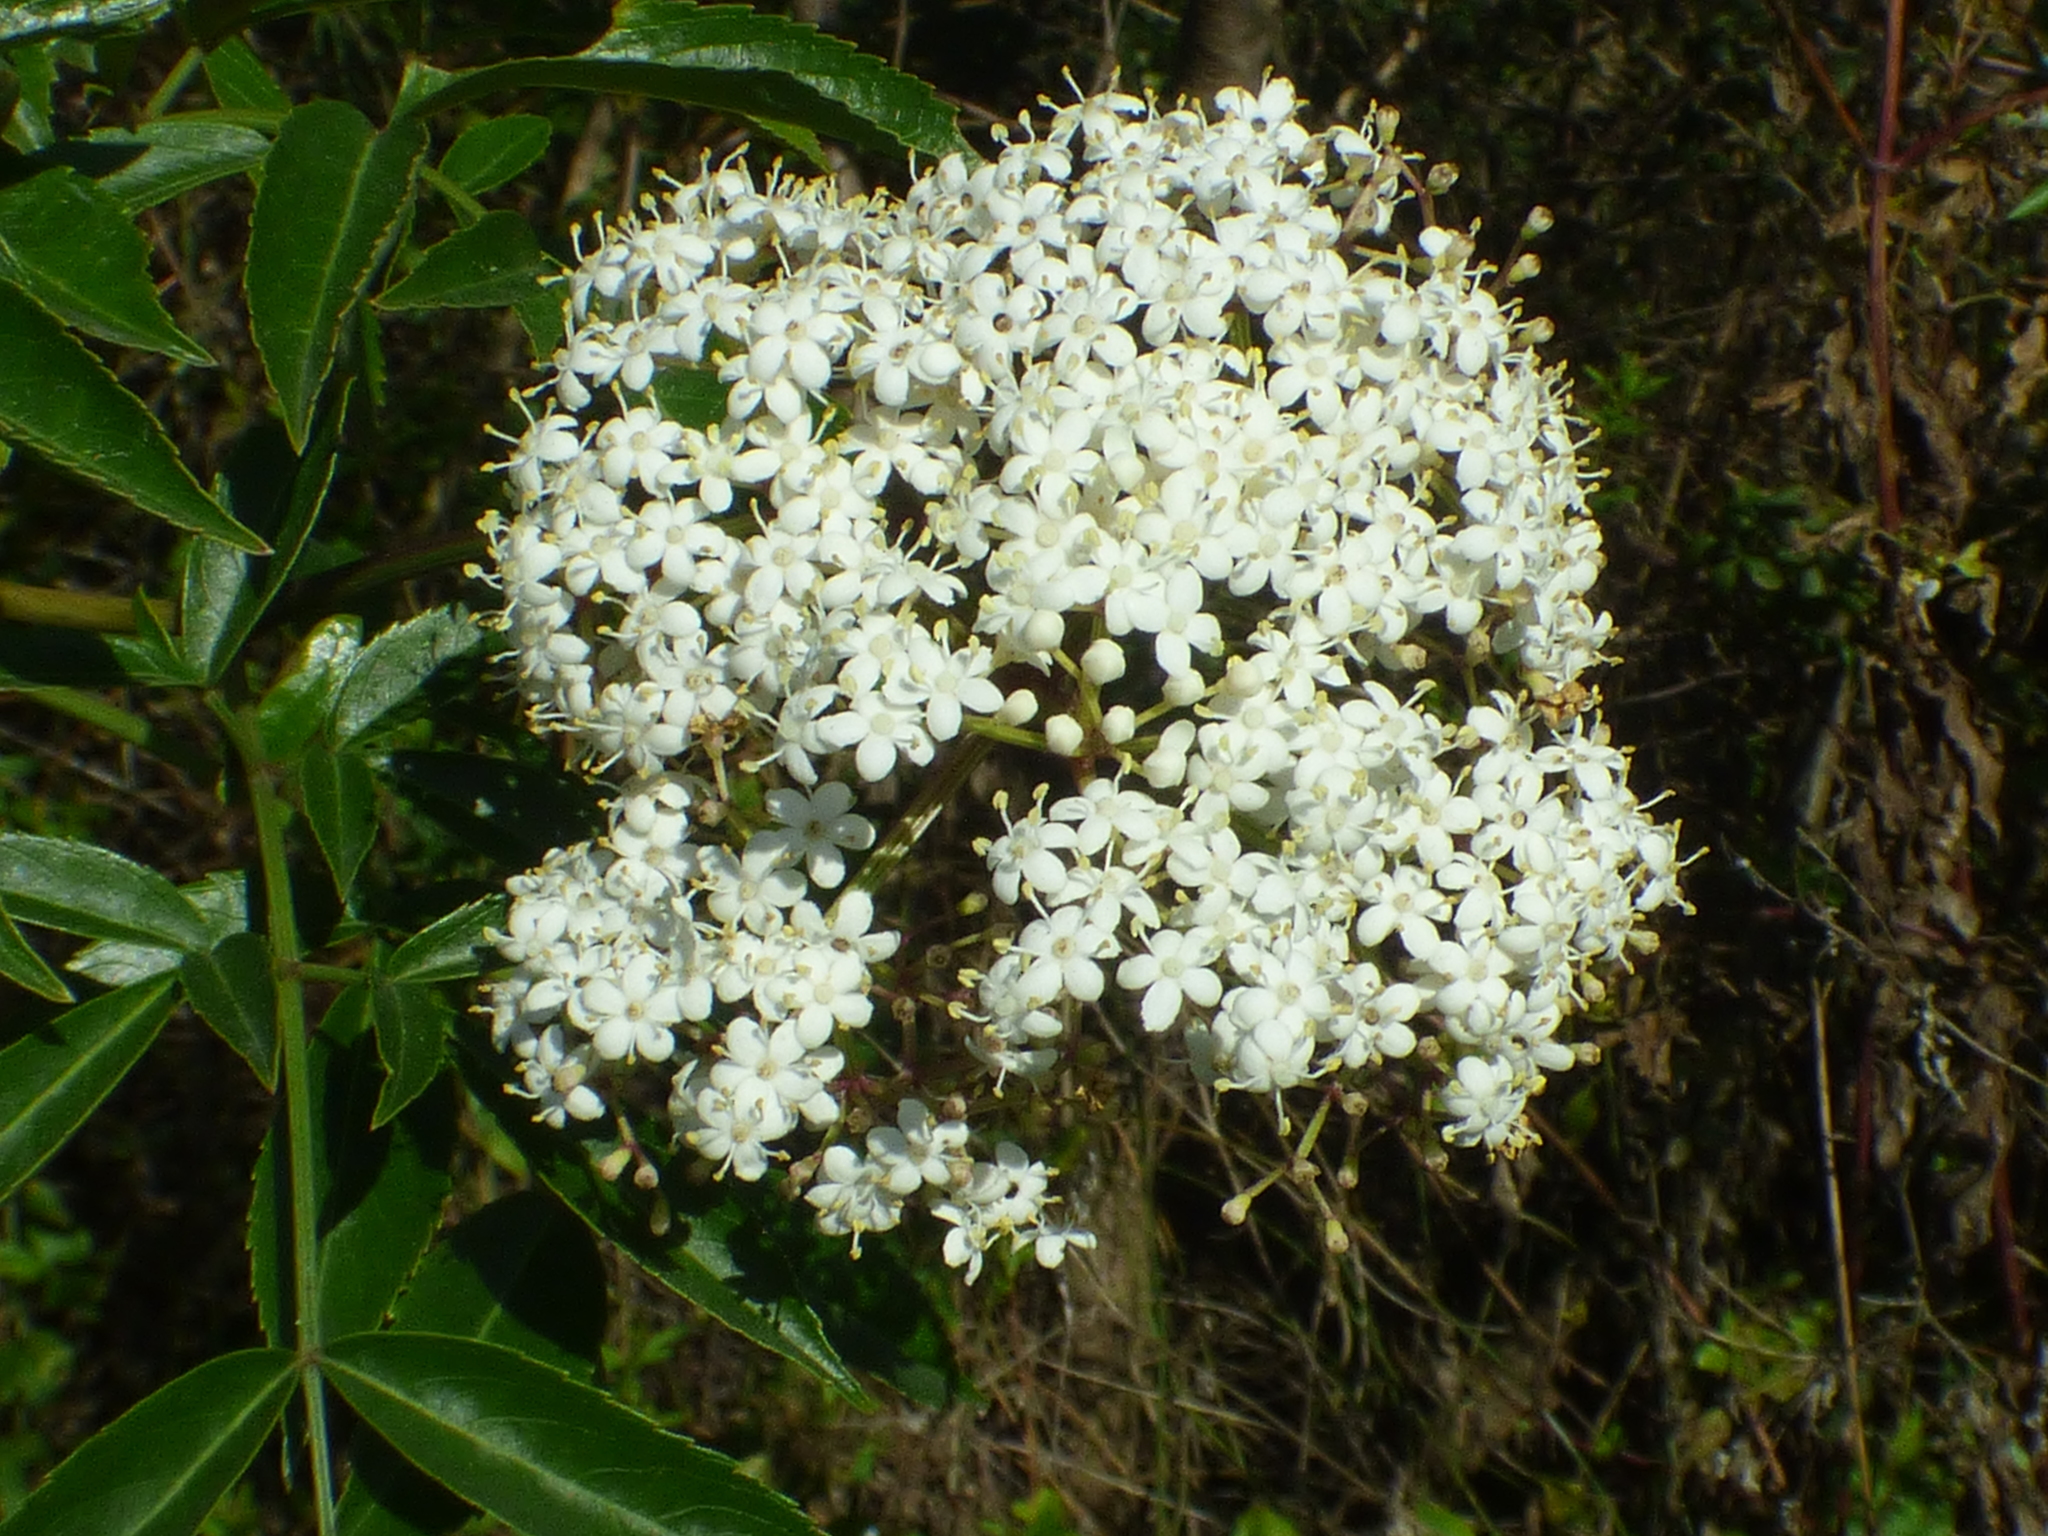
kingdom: Plantae
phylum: Tracheophyta
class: Magnoliopsida
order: Dipsacales
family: Viburnaceae
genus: Sambucus
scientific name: Sambucus canadensis
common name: American elder
